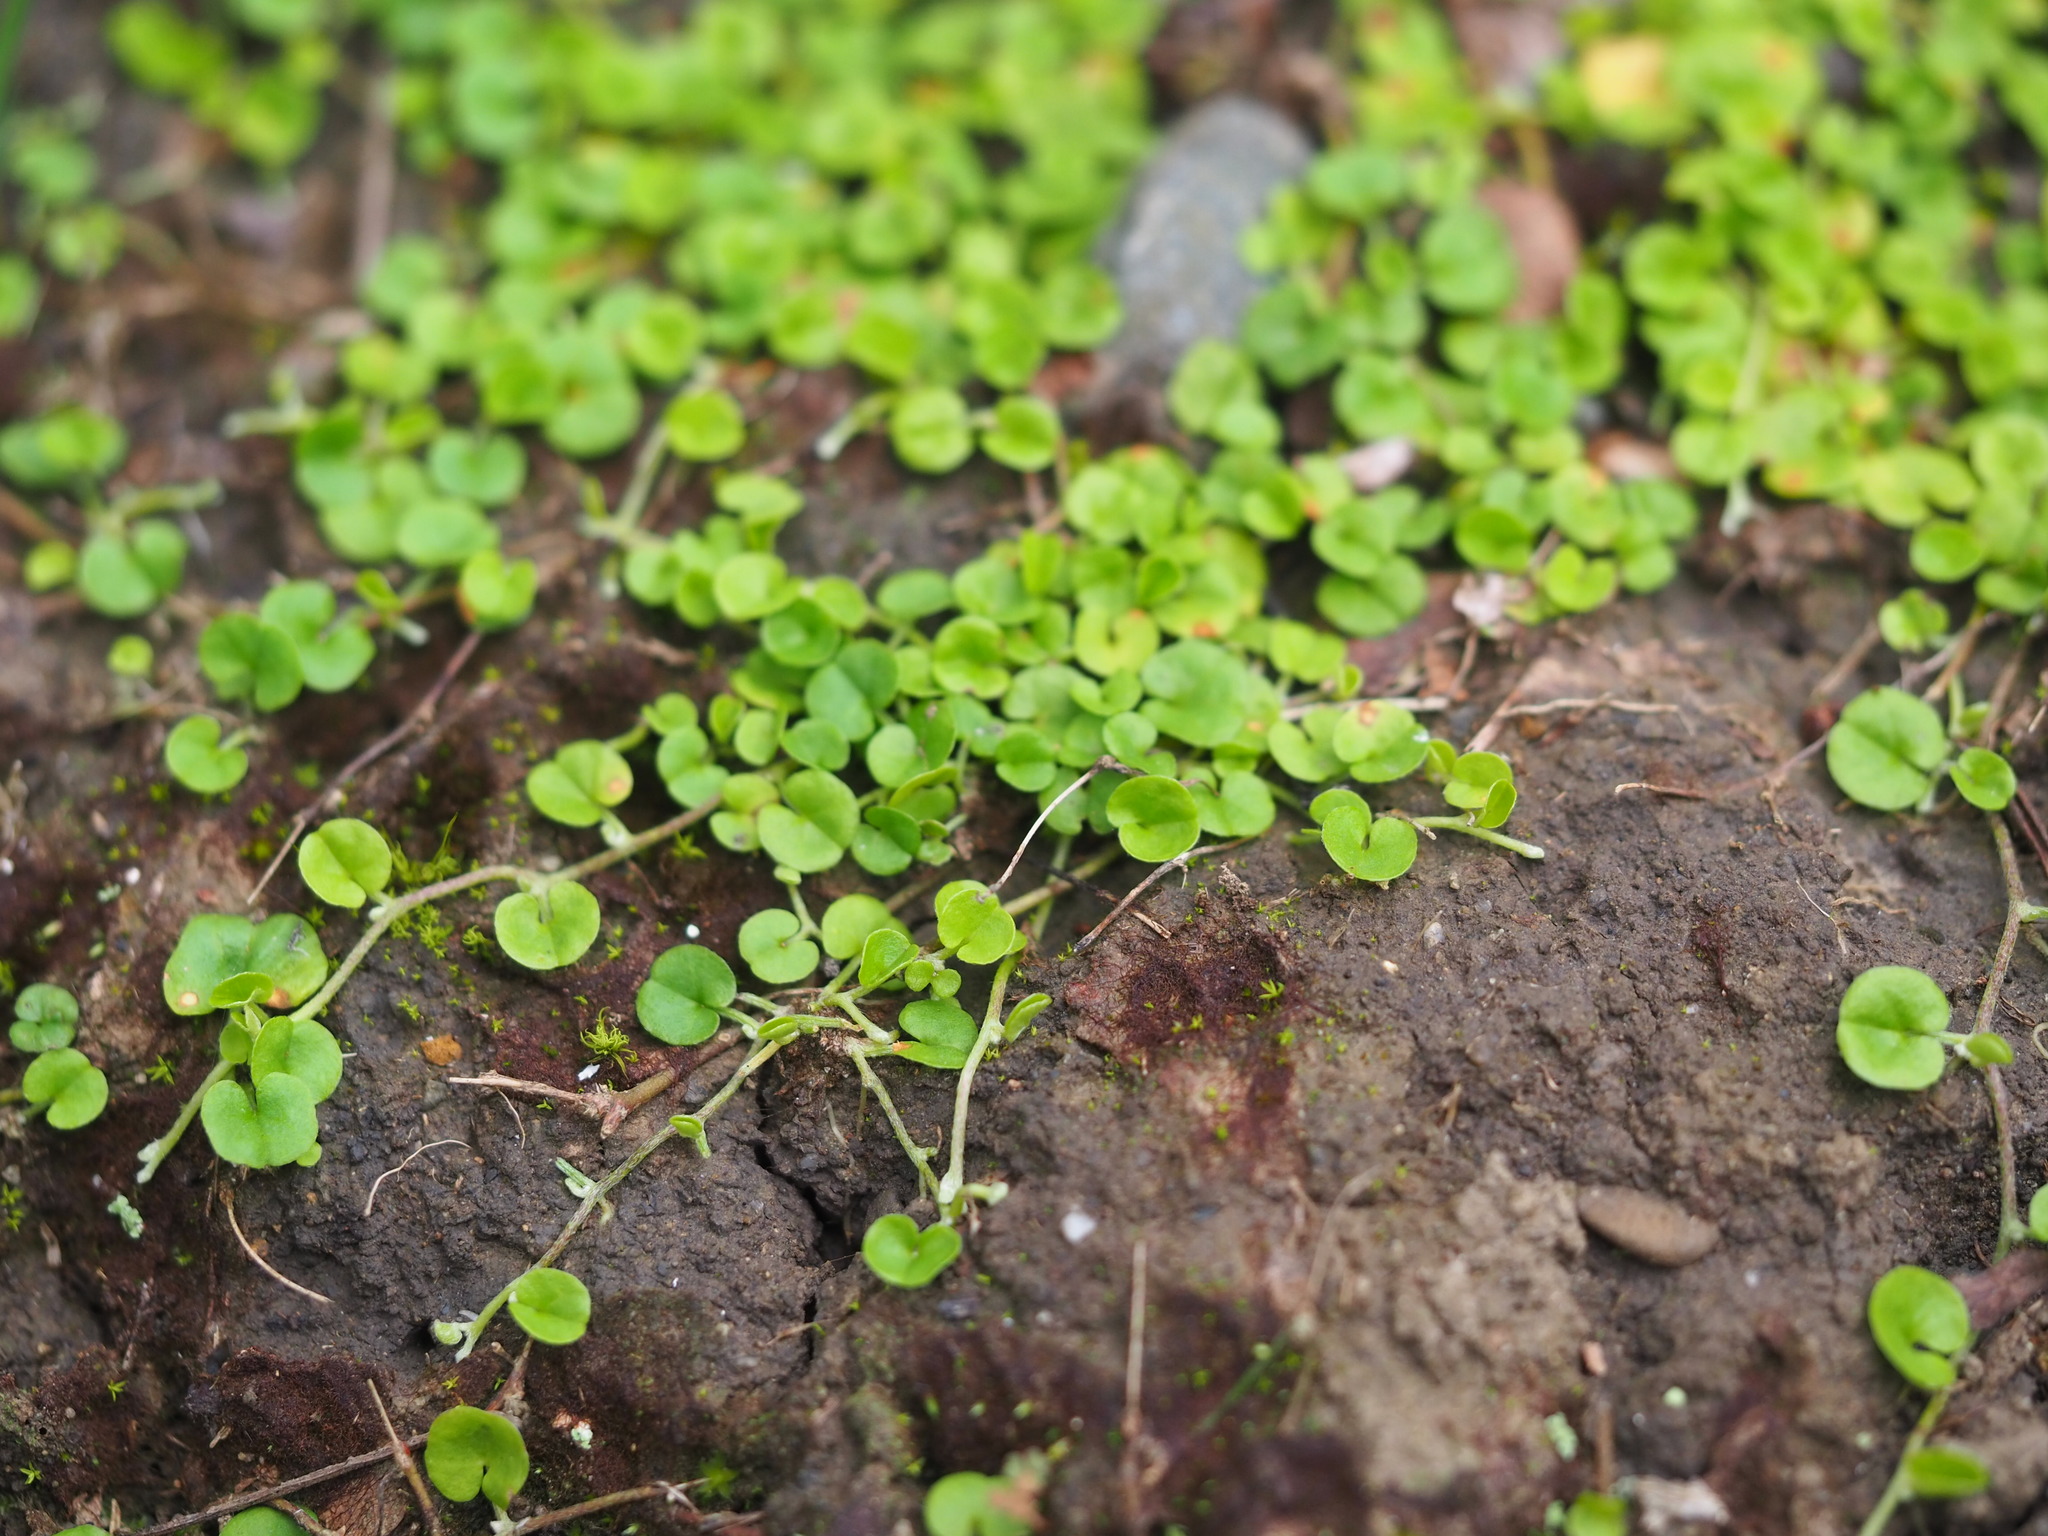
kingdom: Plantae
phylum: Tracheophyta
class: Magnoliopsida
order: Solanales
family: Convolvulaceae
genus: Dichondra
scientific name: Dichondra micrantha
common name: Kidneyweed
